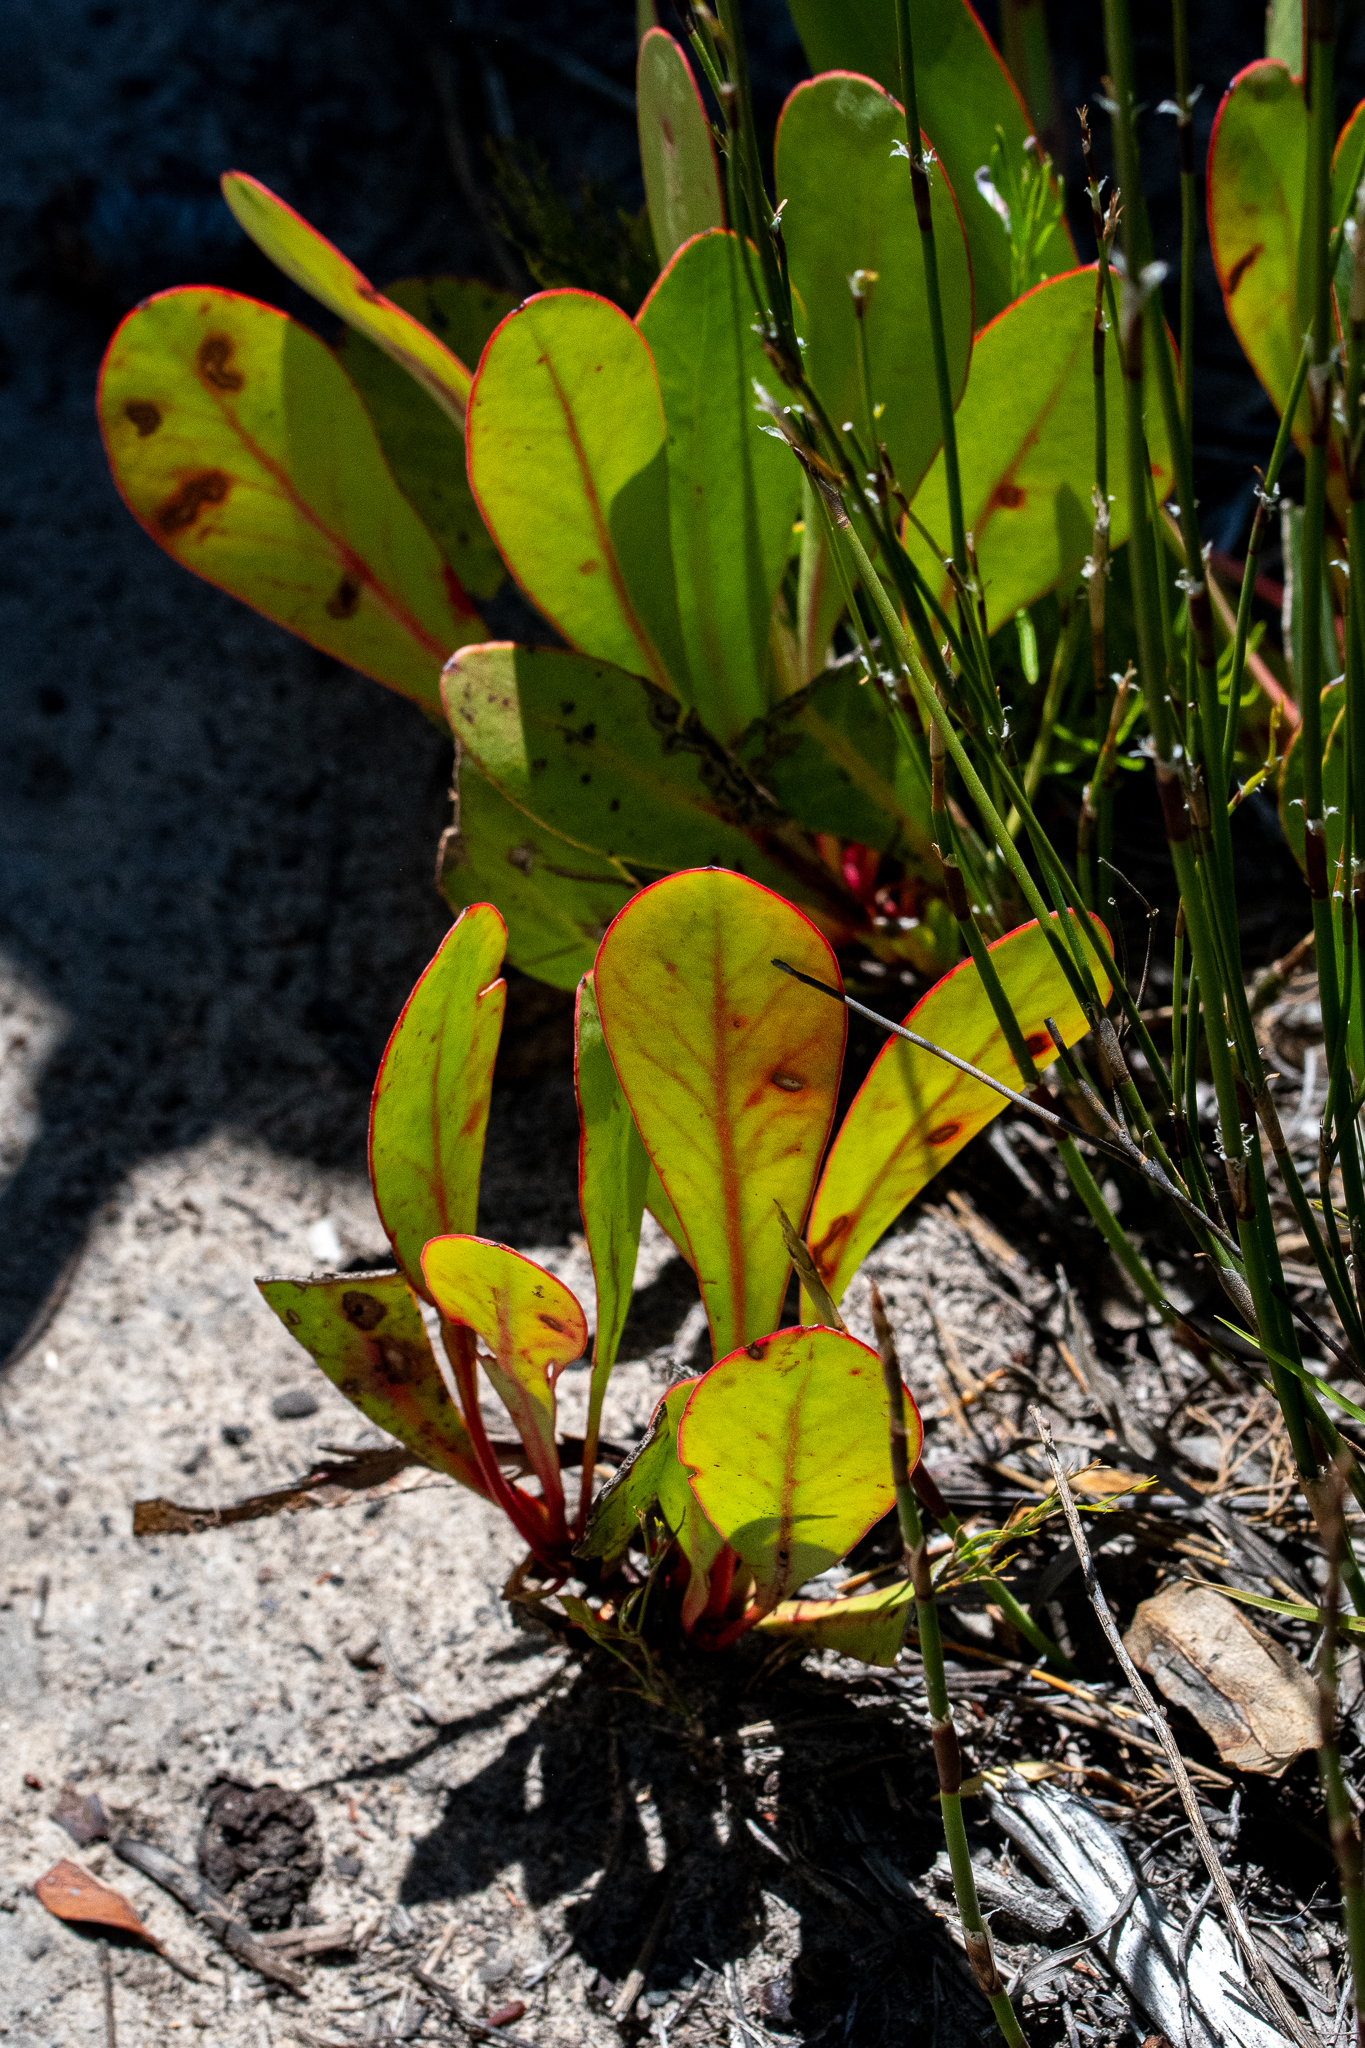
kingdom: Plantae
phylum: Tracheophyta
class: Magnoliopsida
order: Proteales
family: Proteaceae
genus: Protea
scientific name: Protea acaulos
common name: Common ground sugarbush
